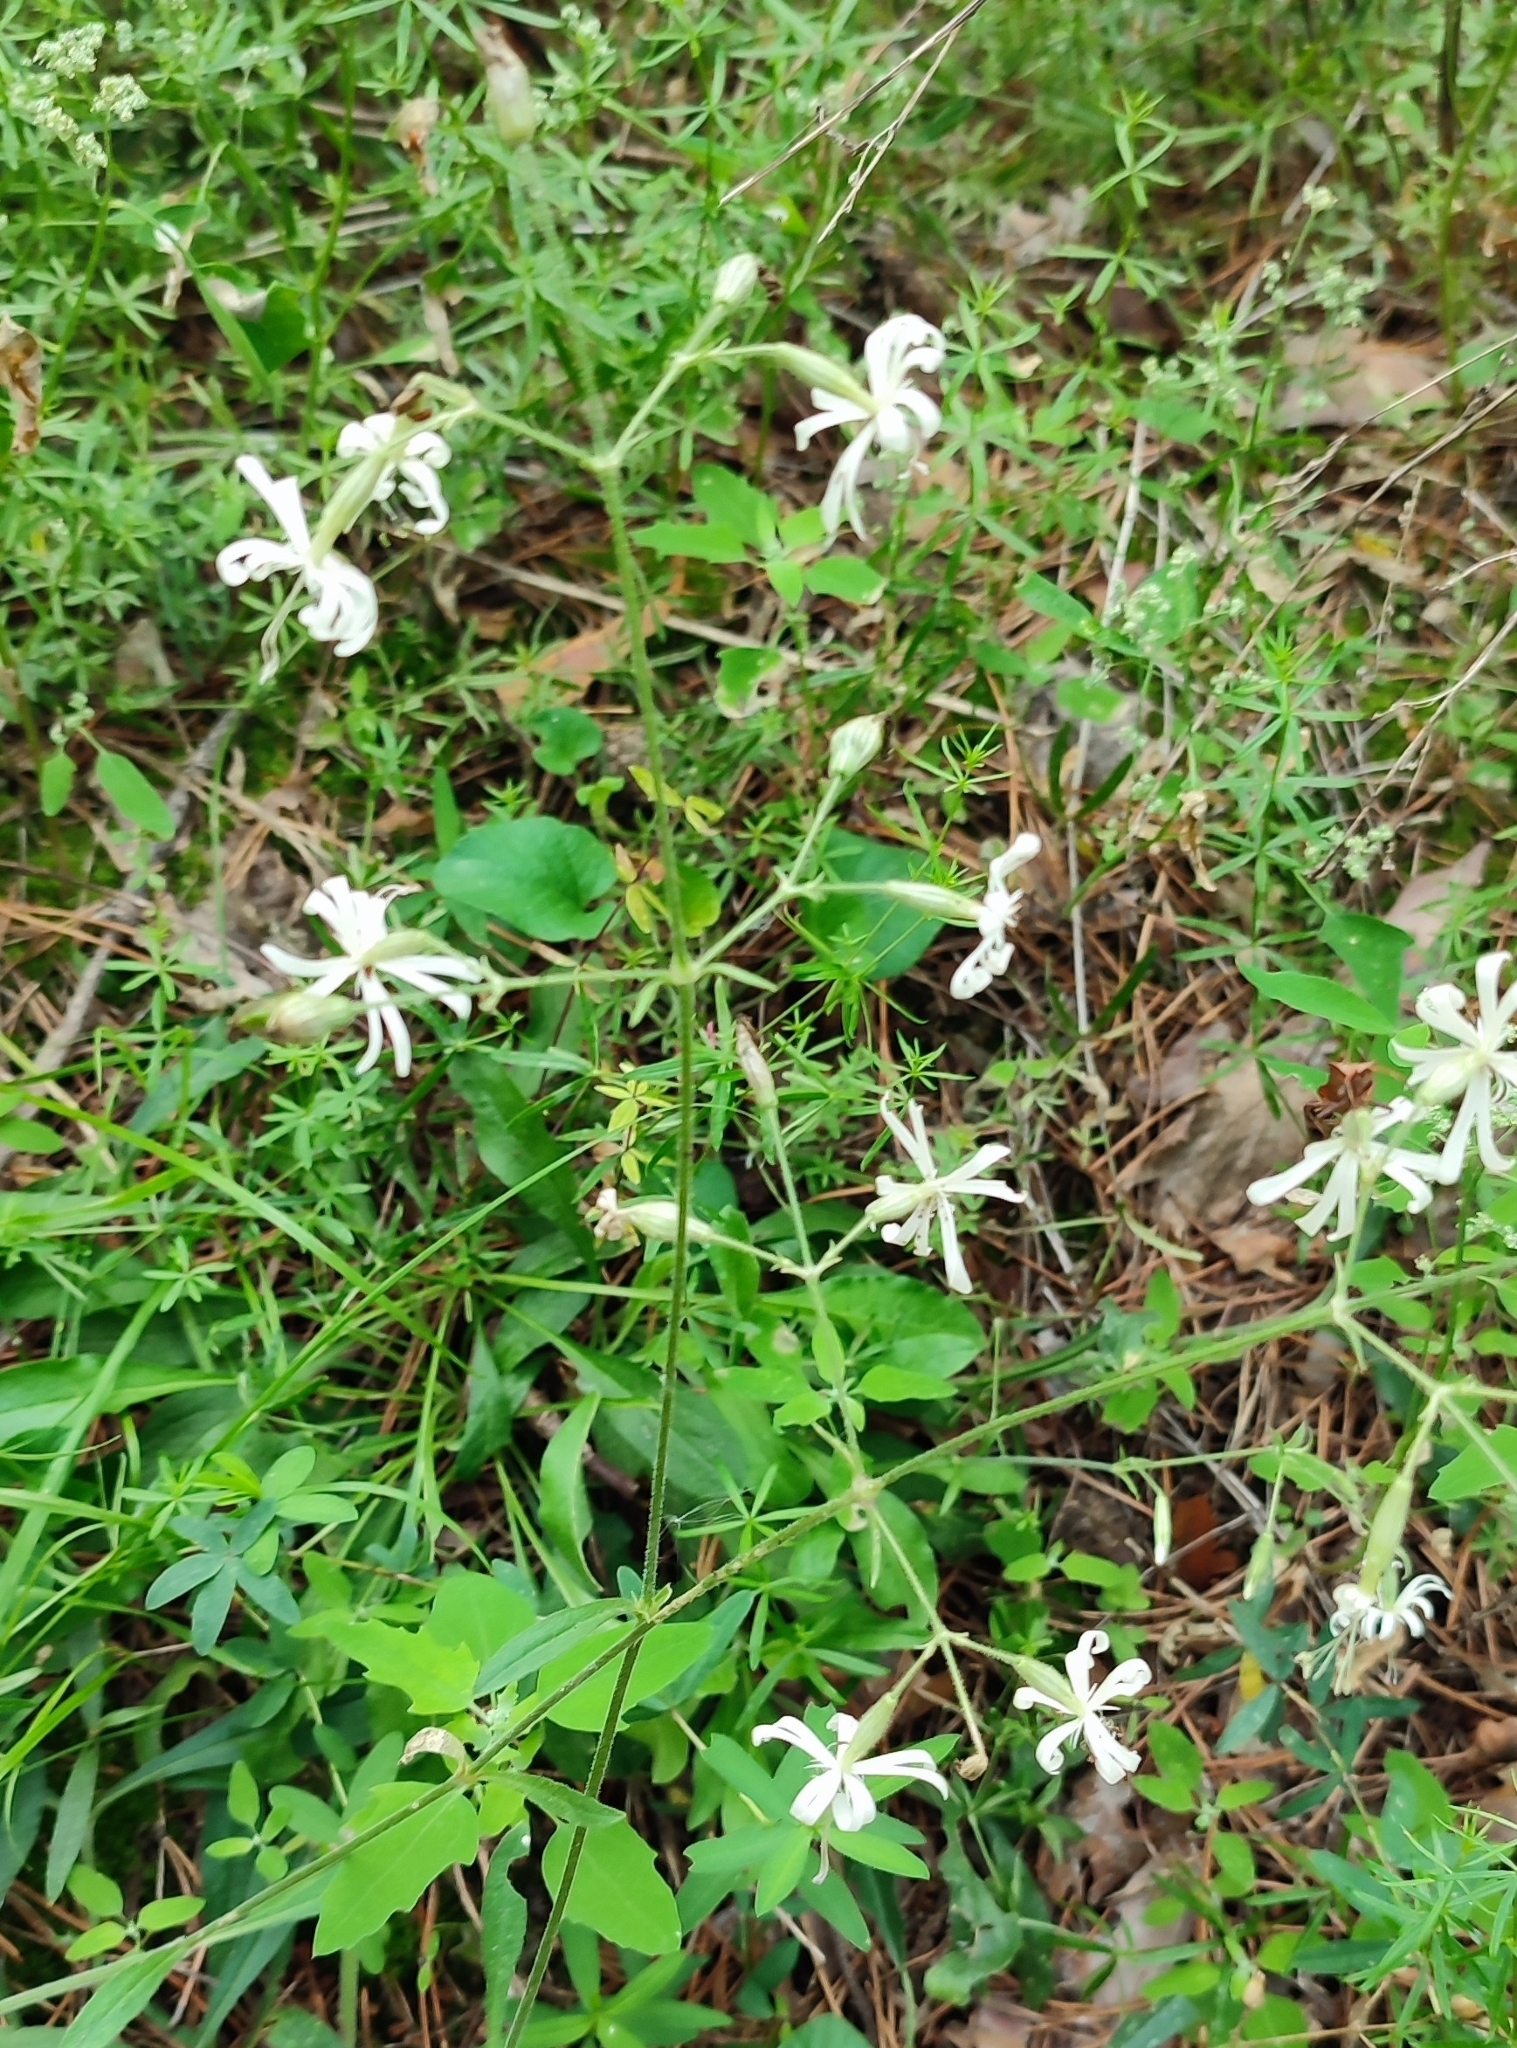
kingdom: Plantae
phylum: Tracheophyta
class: Magnoliopsida
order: Caryophyllales
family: Caryophyllaceae
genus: Silene
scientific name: Silene nutans
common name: Nottingham catchfly
